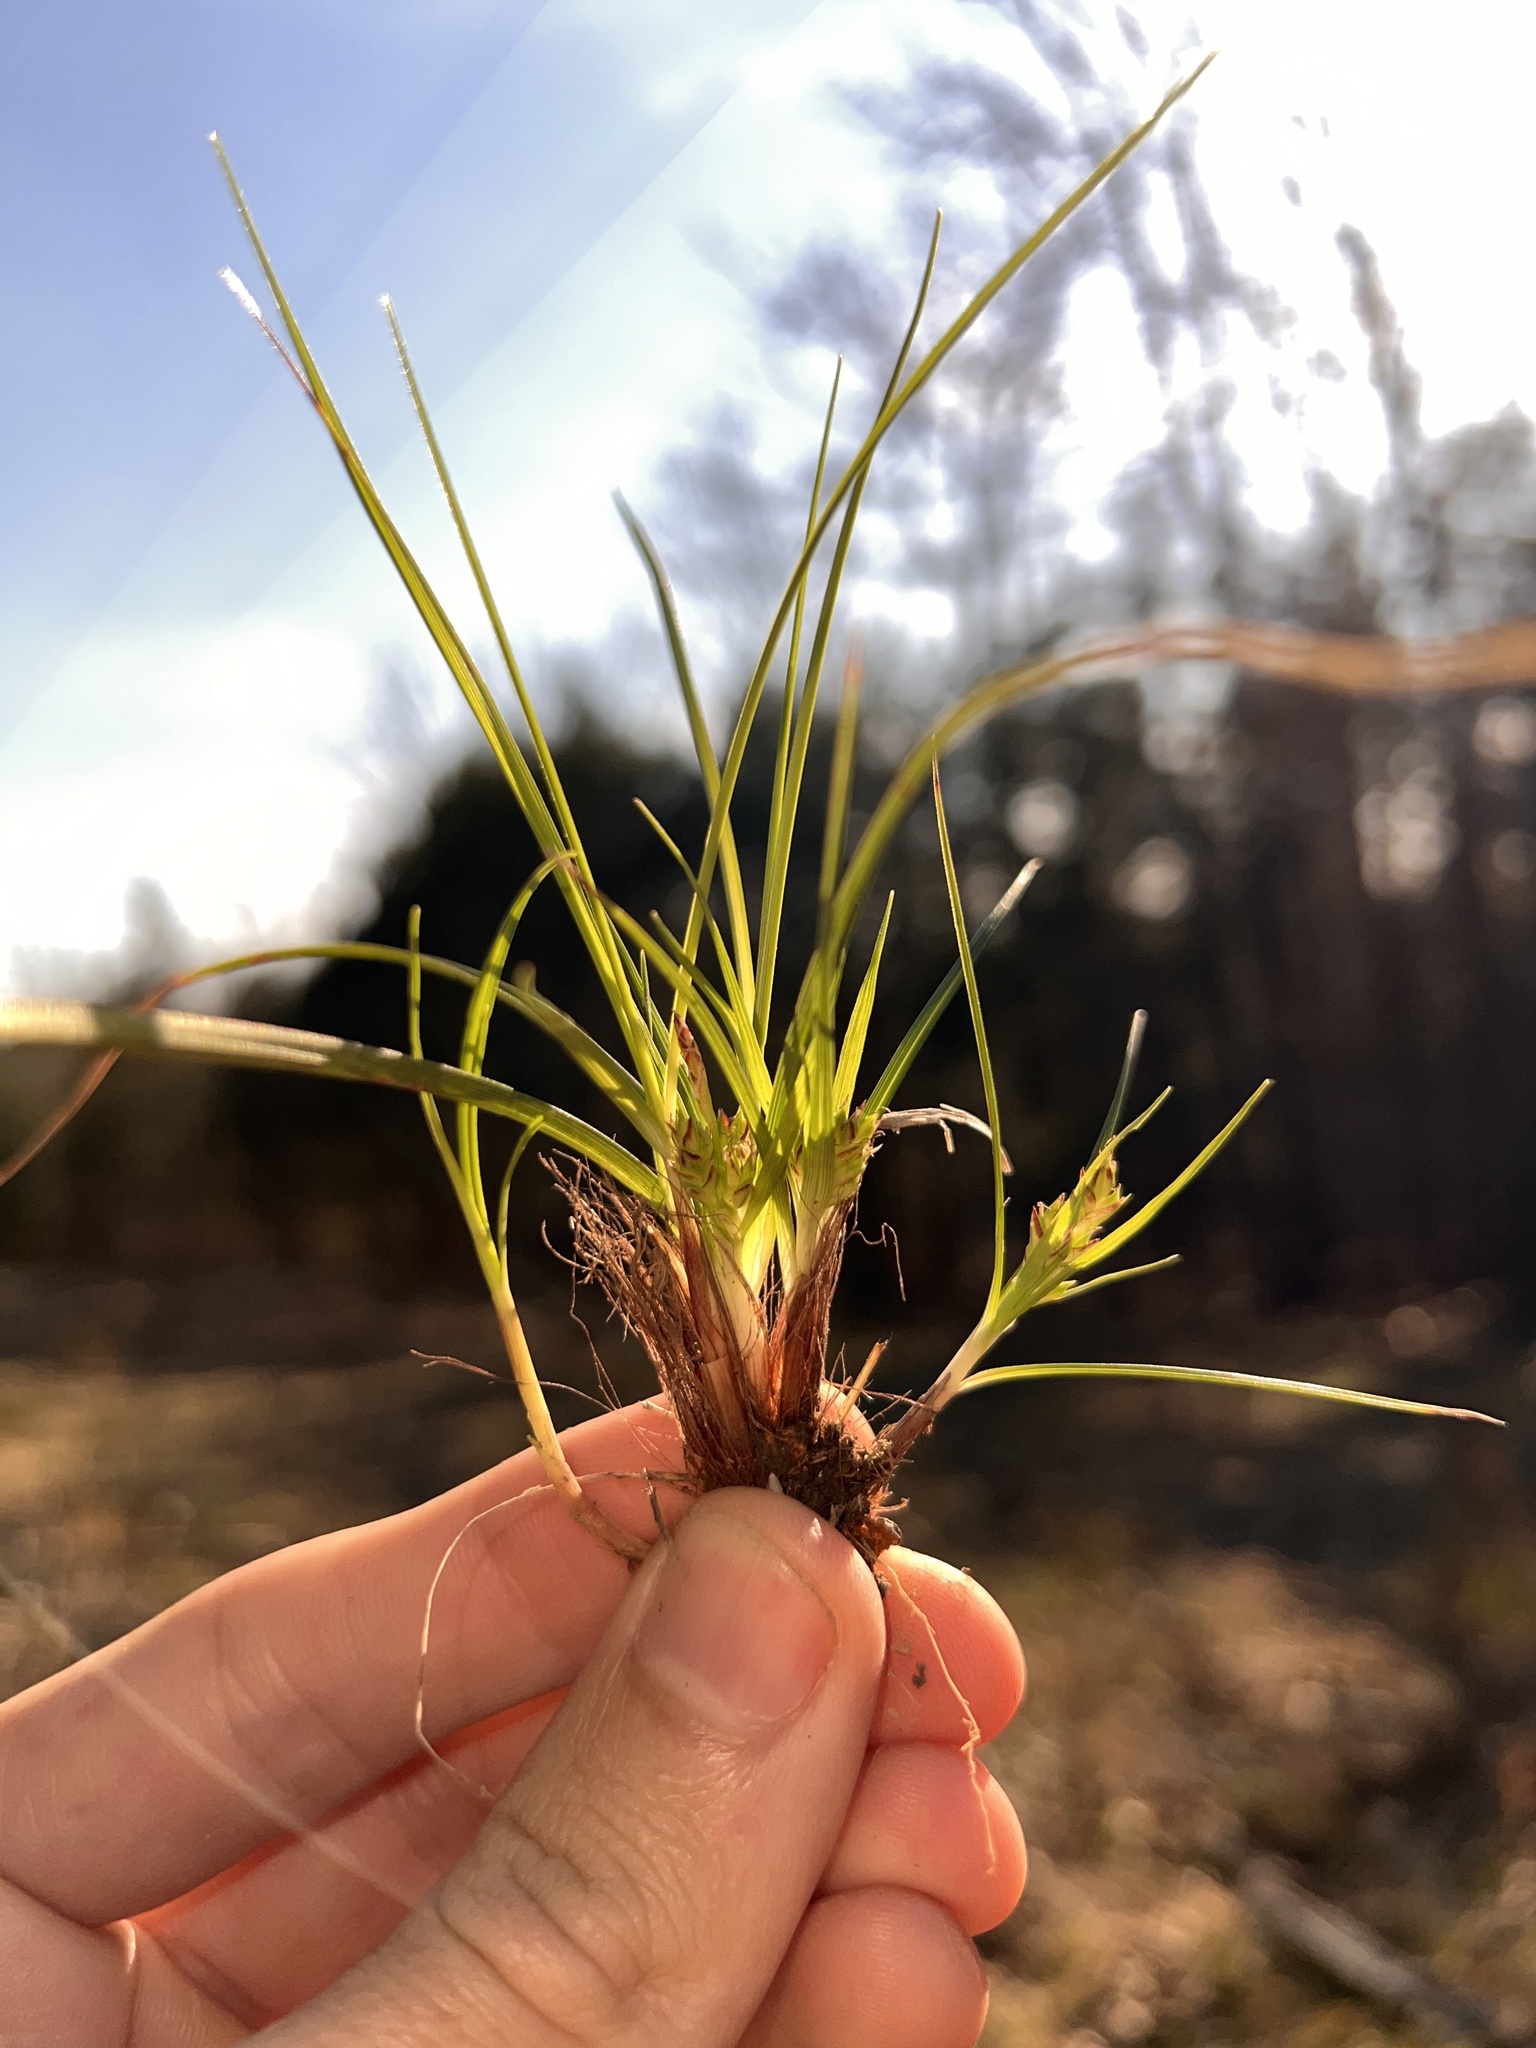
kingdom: Plantae
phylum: Tracheophyta
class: Liliopsida
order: Poales
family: Cyperaceae
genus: Carex
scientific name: Carex umbellata
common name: Early oak sedge
